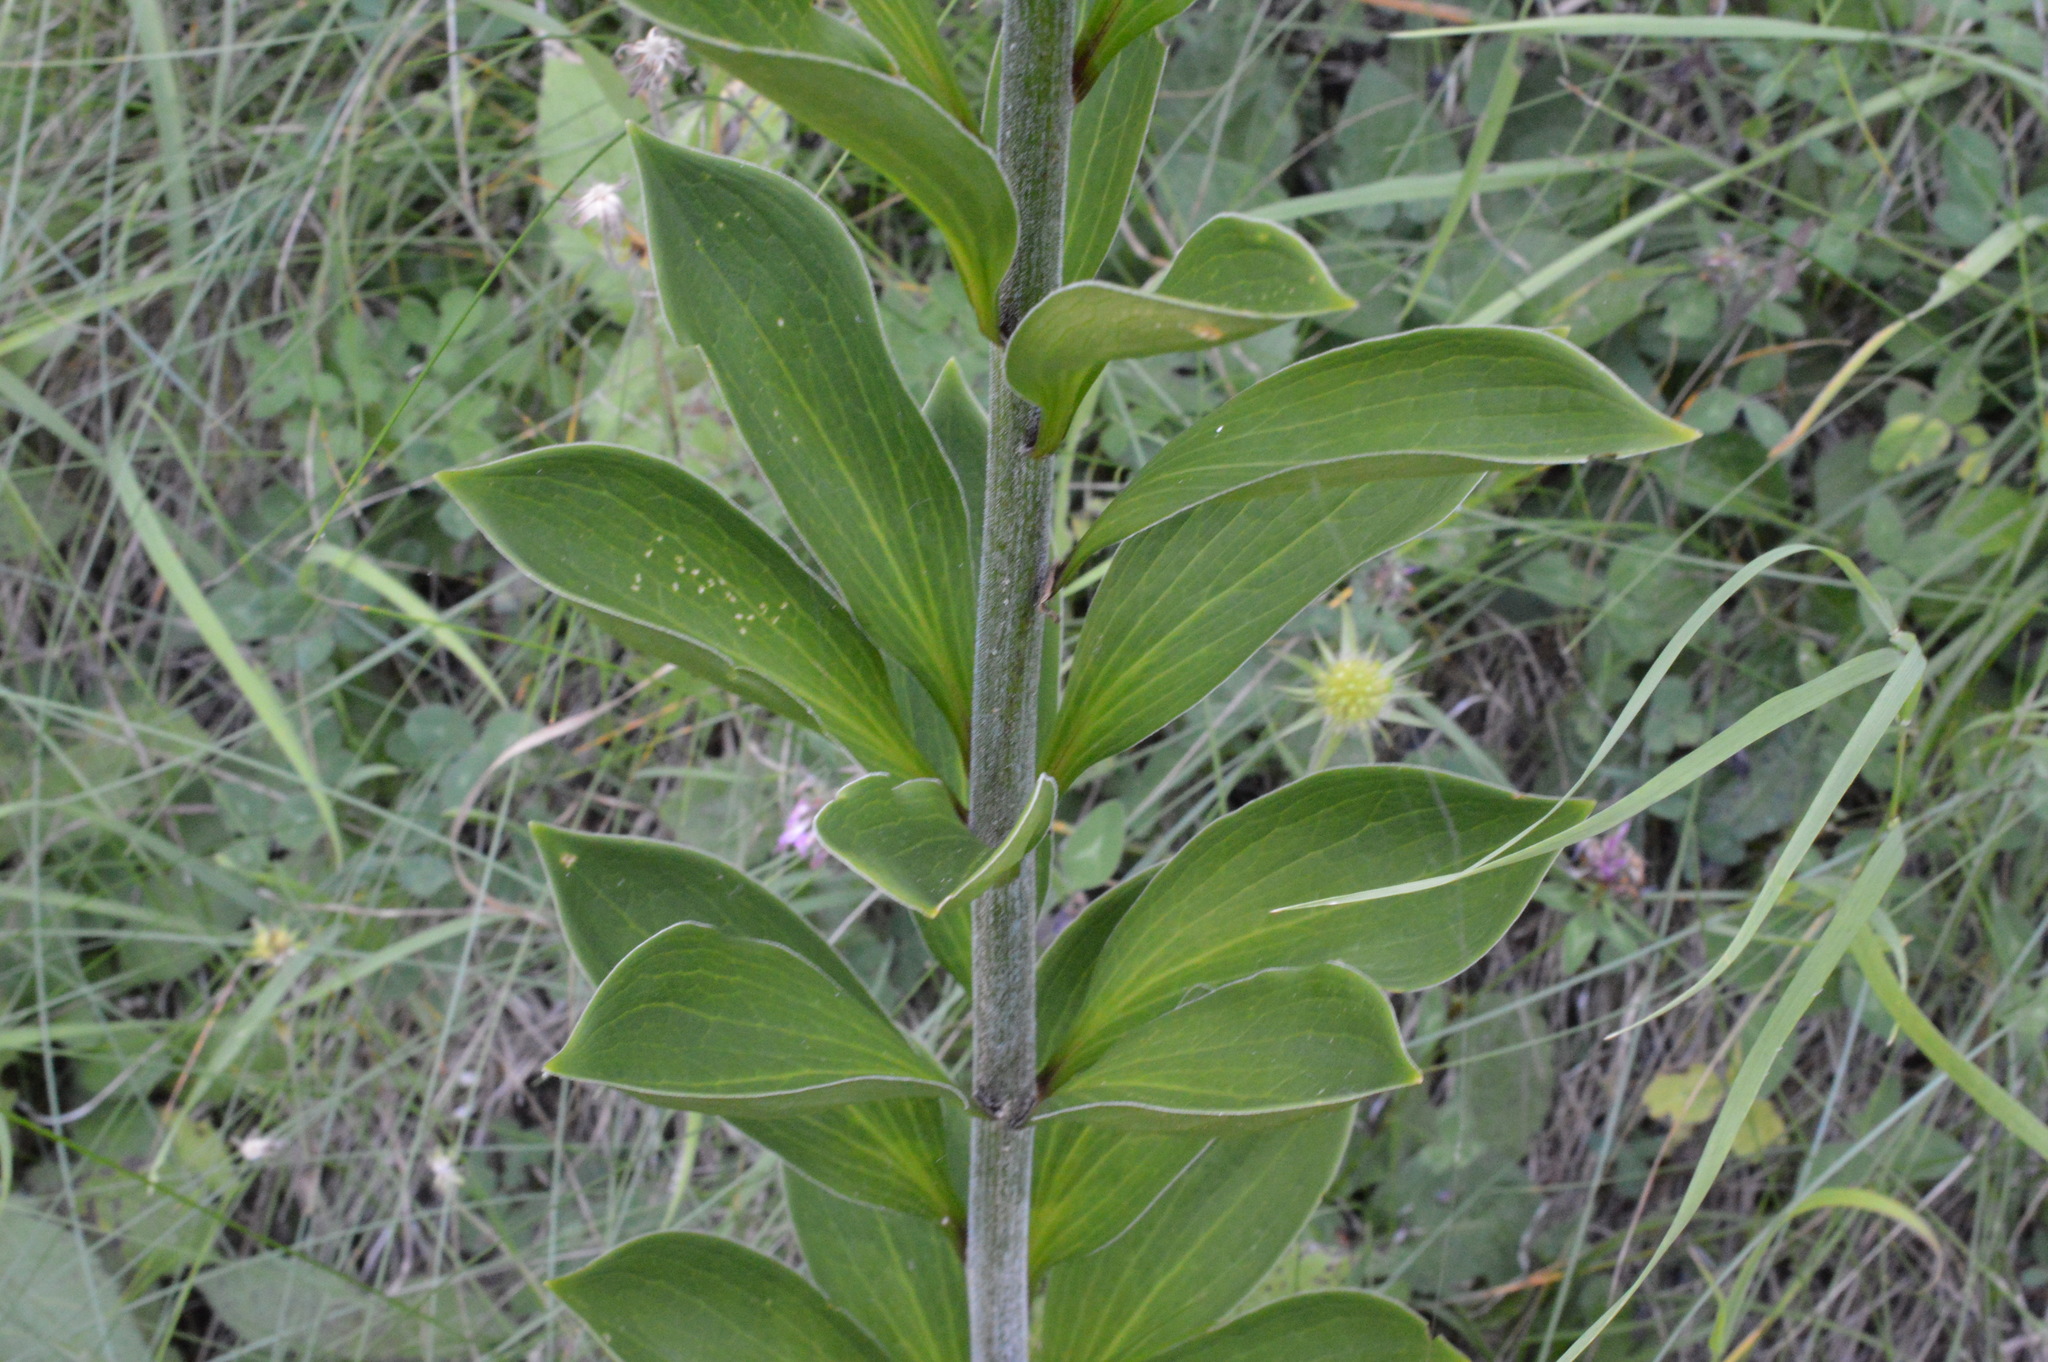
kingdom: Plantae
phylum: Tracheophyta
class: Liliopsida
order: Liliales
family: Liliaceae
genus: Lilium
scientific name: Lilium martagon
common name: Martagon lily
